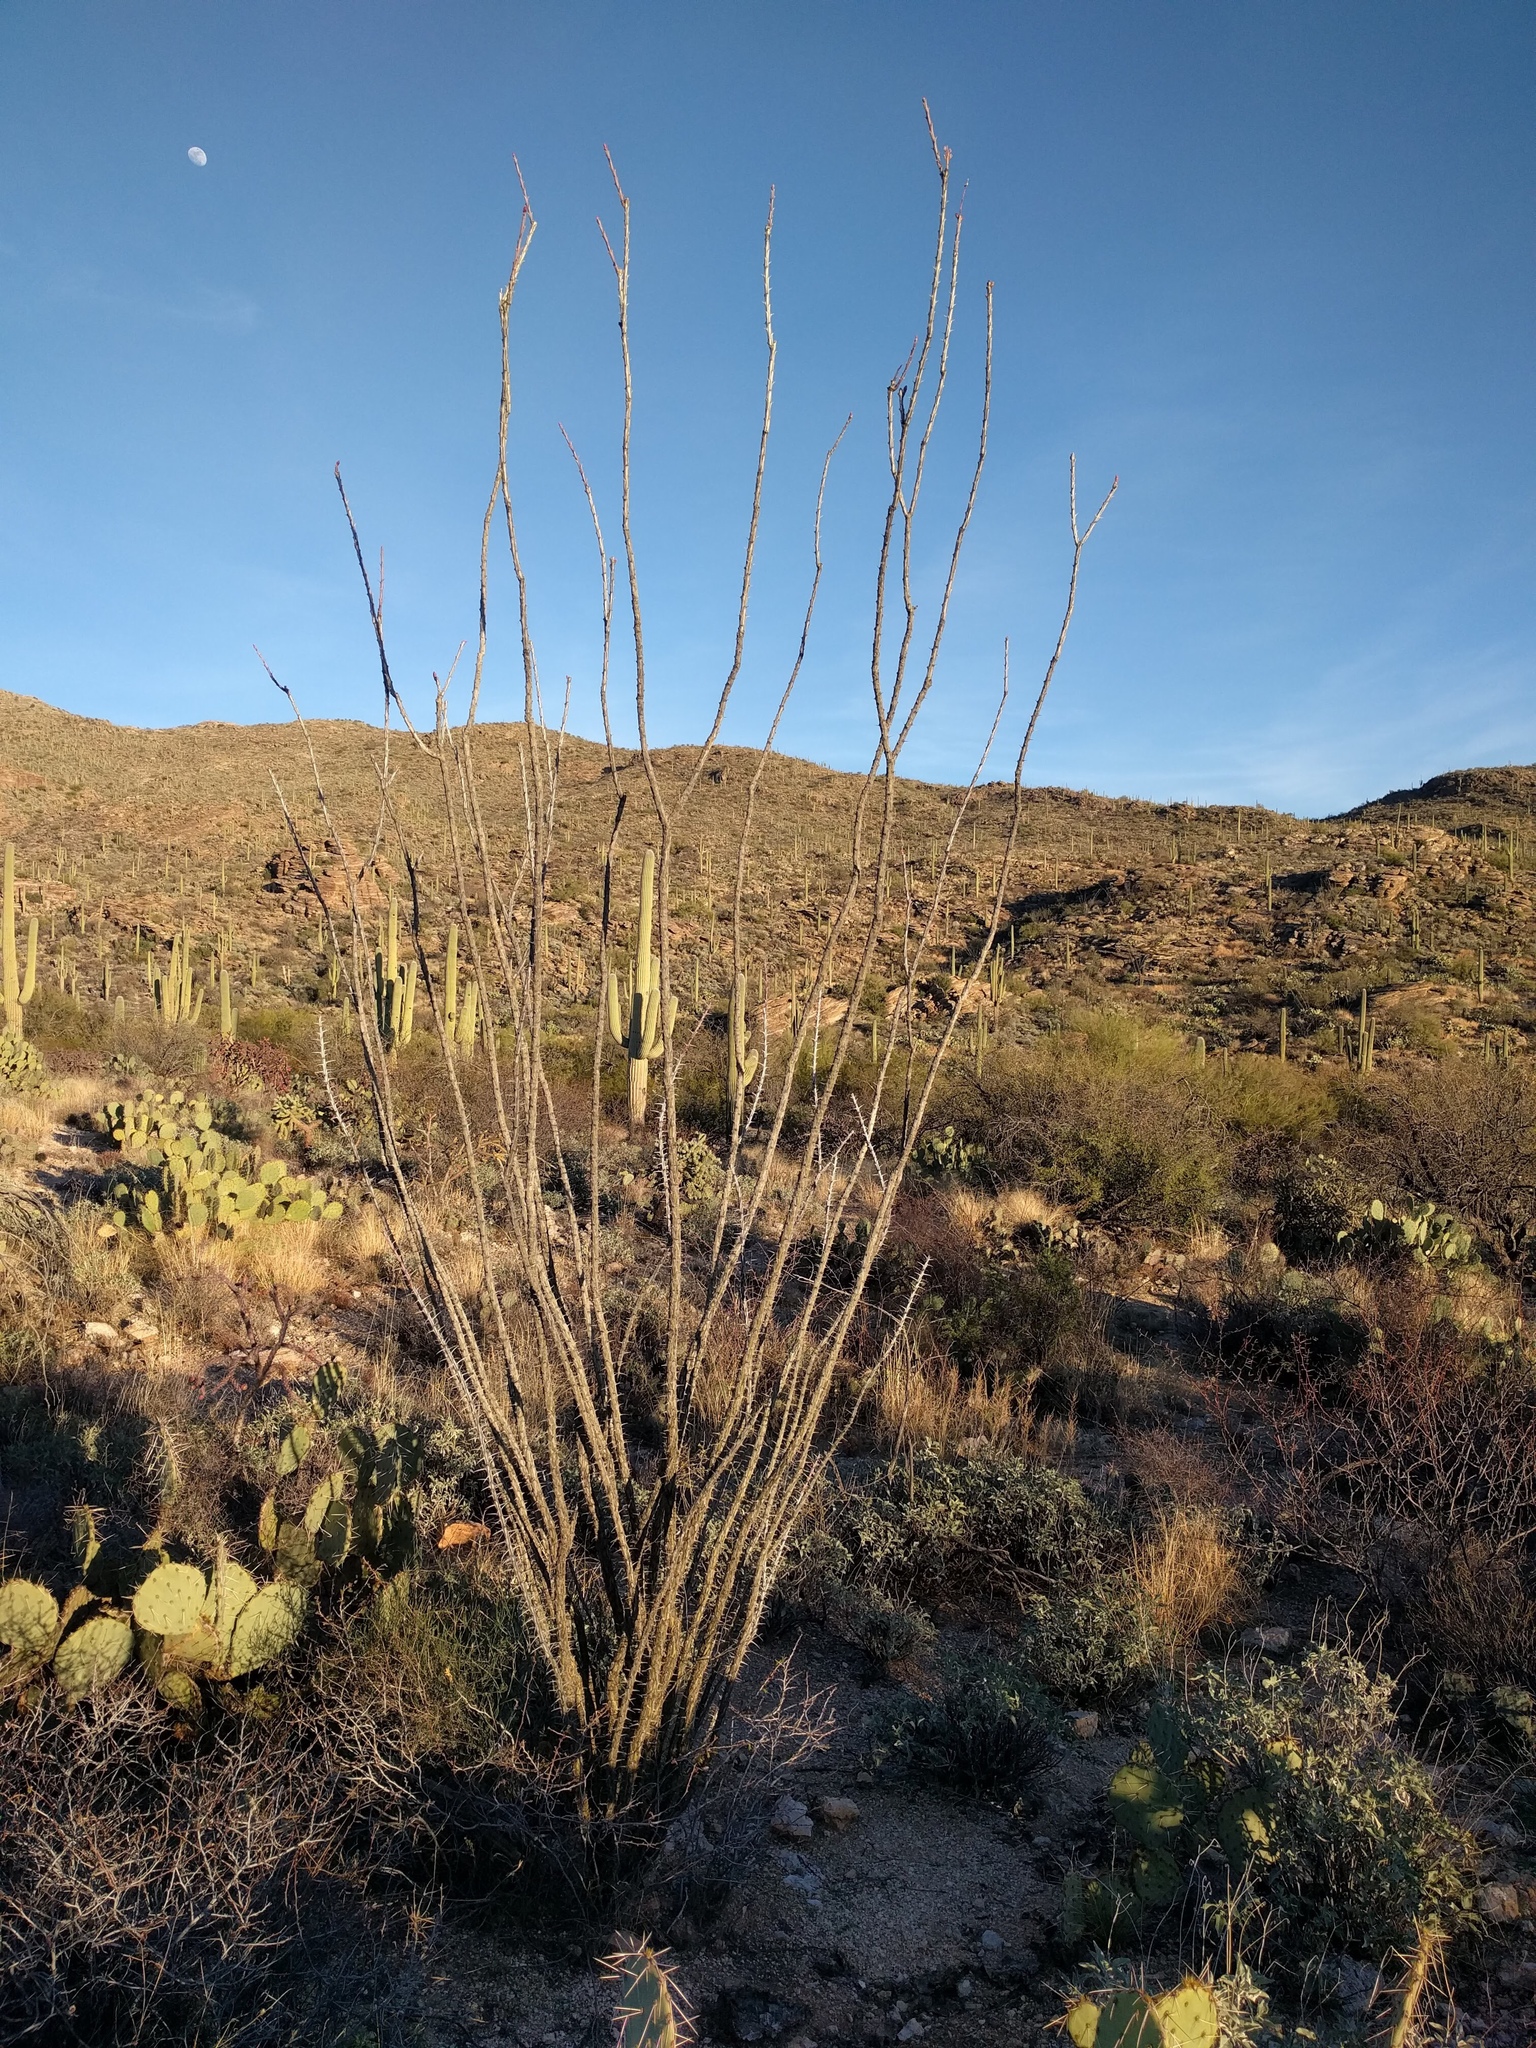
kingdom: Plantae
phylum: Tracheophyta
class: Magnoliopsida
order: Ericales
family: Fouquieriaceae
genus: Fouquieria
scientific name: Fouquieria splendens
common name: Vine-cactus
